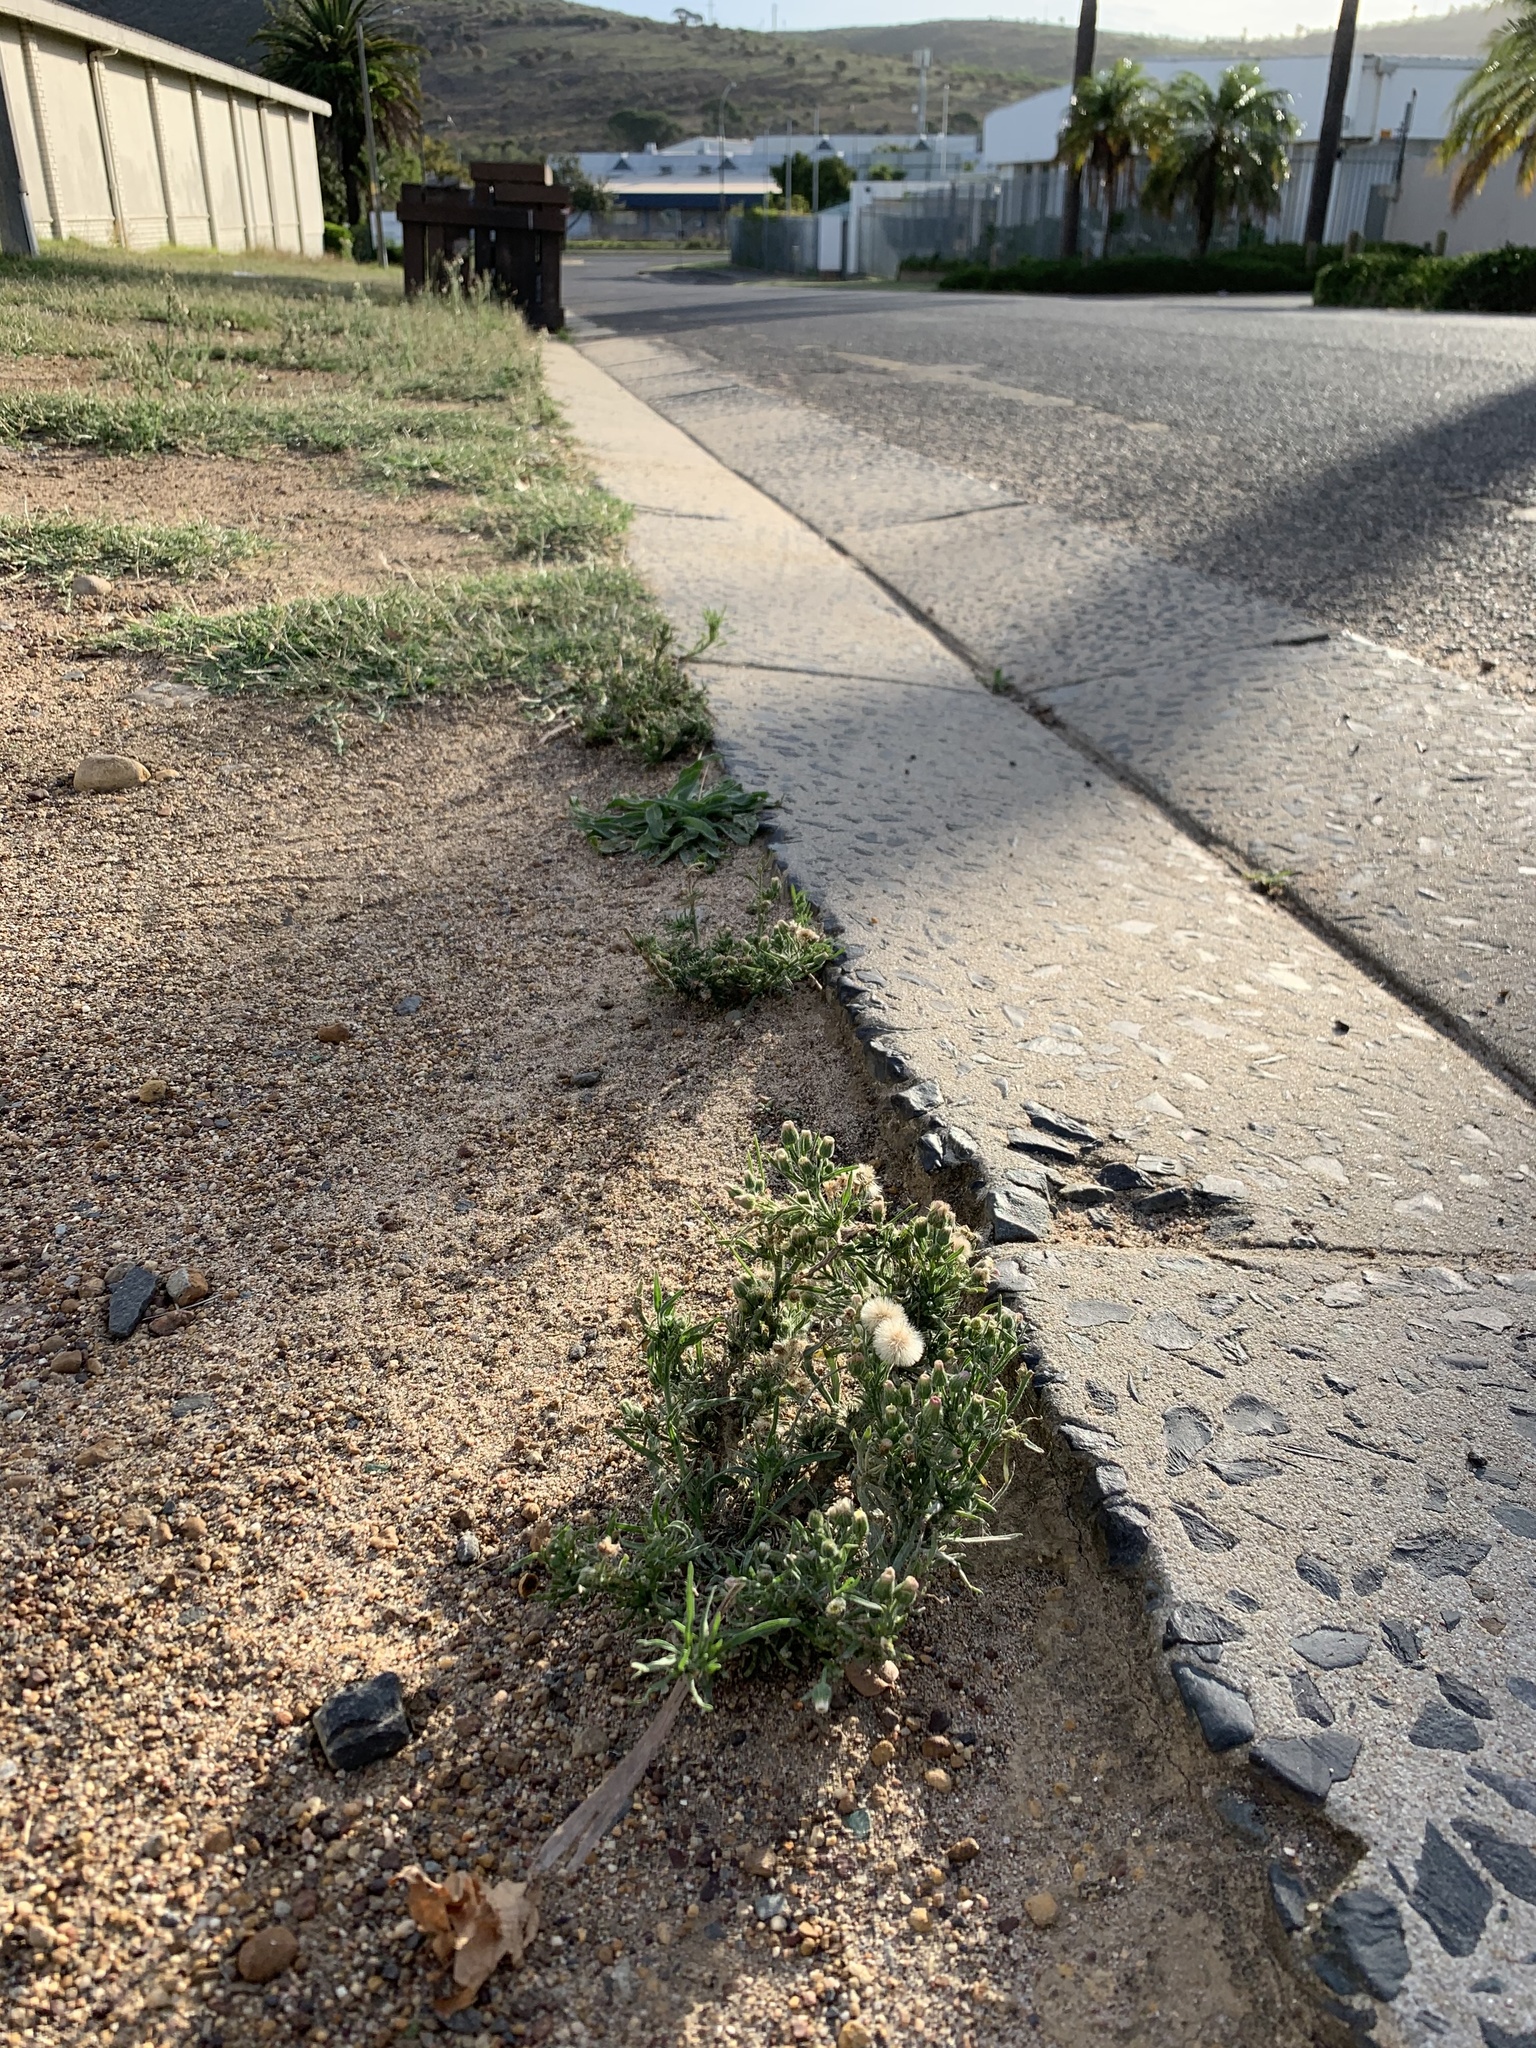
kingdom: Plantae
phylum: Tracheophyta
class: Magnoliopsida
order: Asterales
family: Asteraceae
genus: Erigeron
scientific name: Erigeron bonariensis
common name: Argentine fleabane
